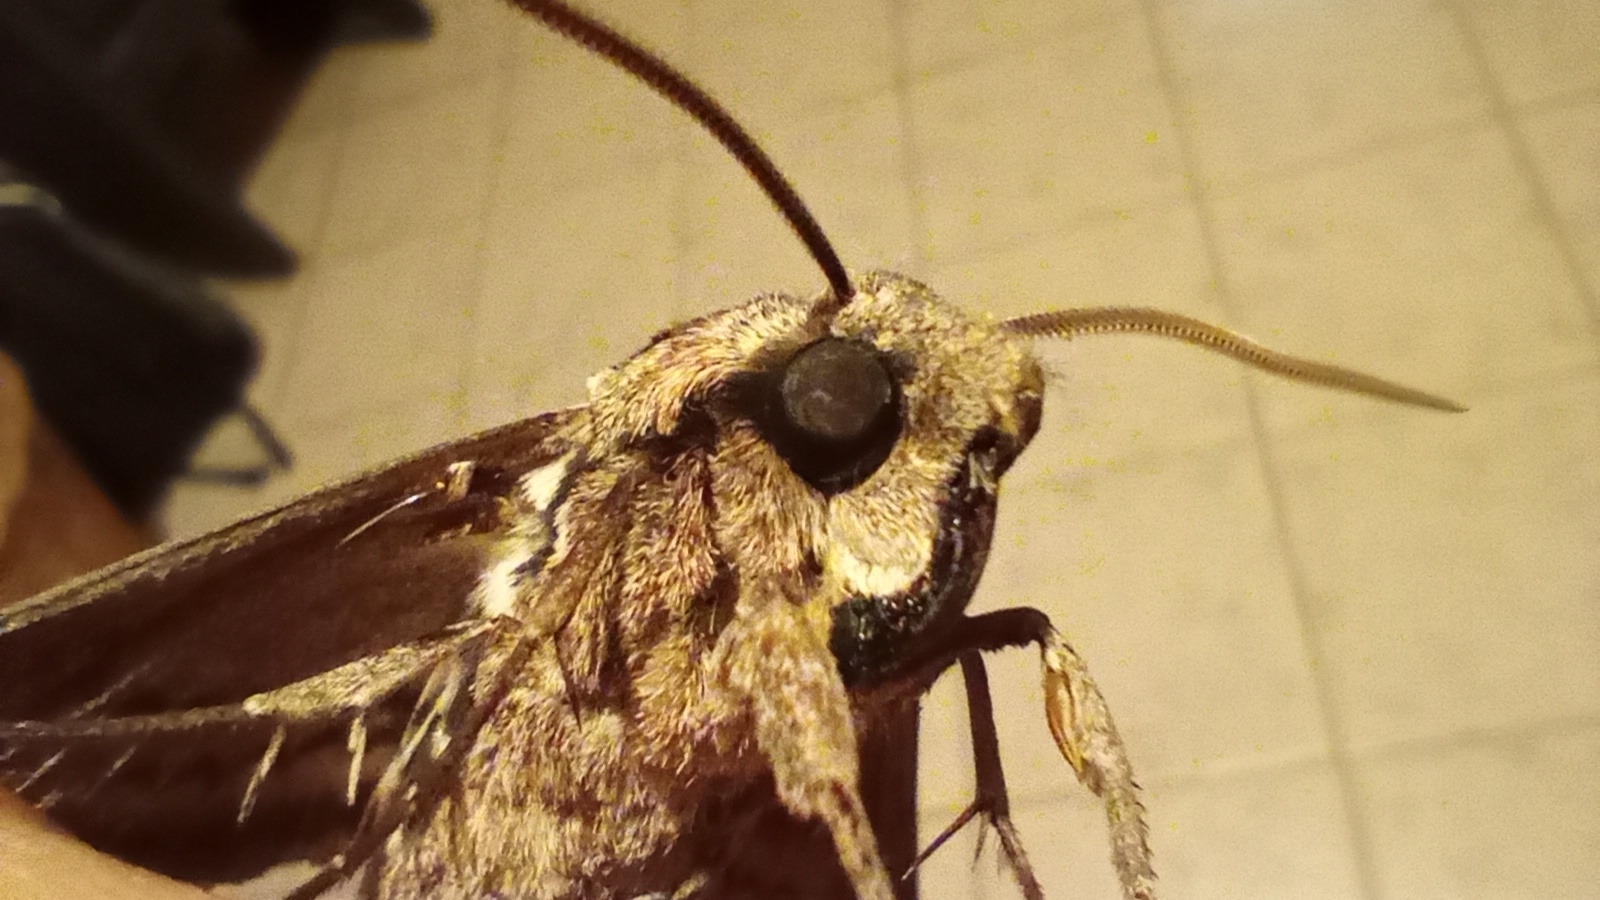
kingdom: Animalia
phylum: Arthropoda
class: Insecta
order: Lepidoptera
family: Sphingidae
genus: Manduca
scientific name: Manduca afflicta
